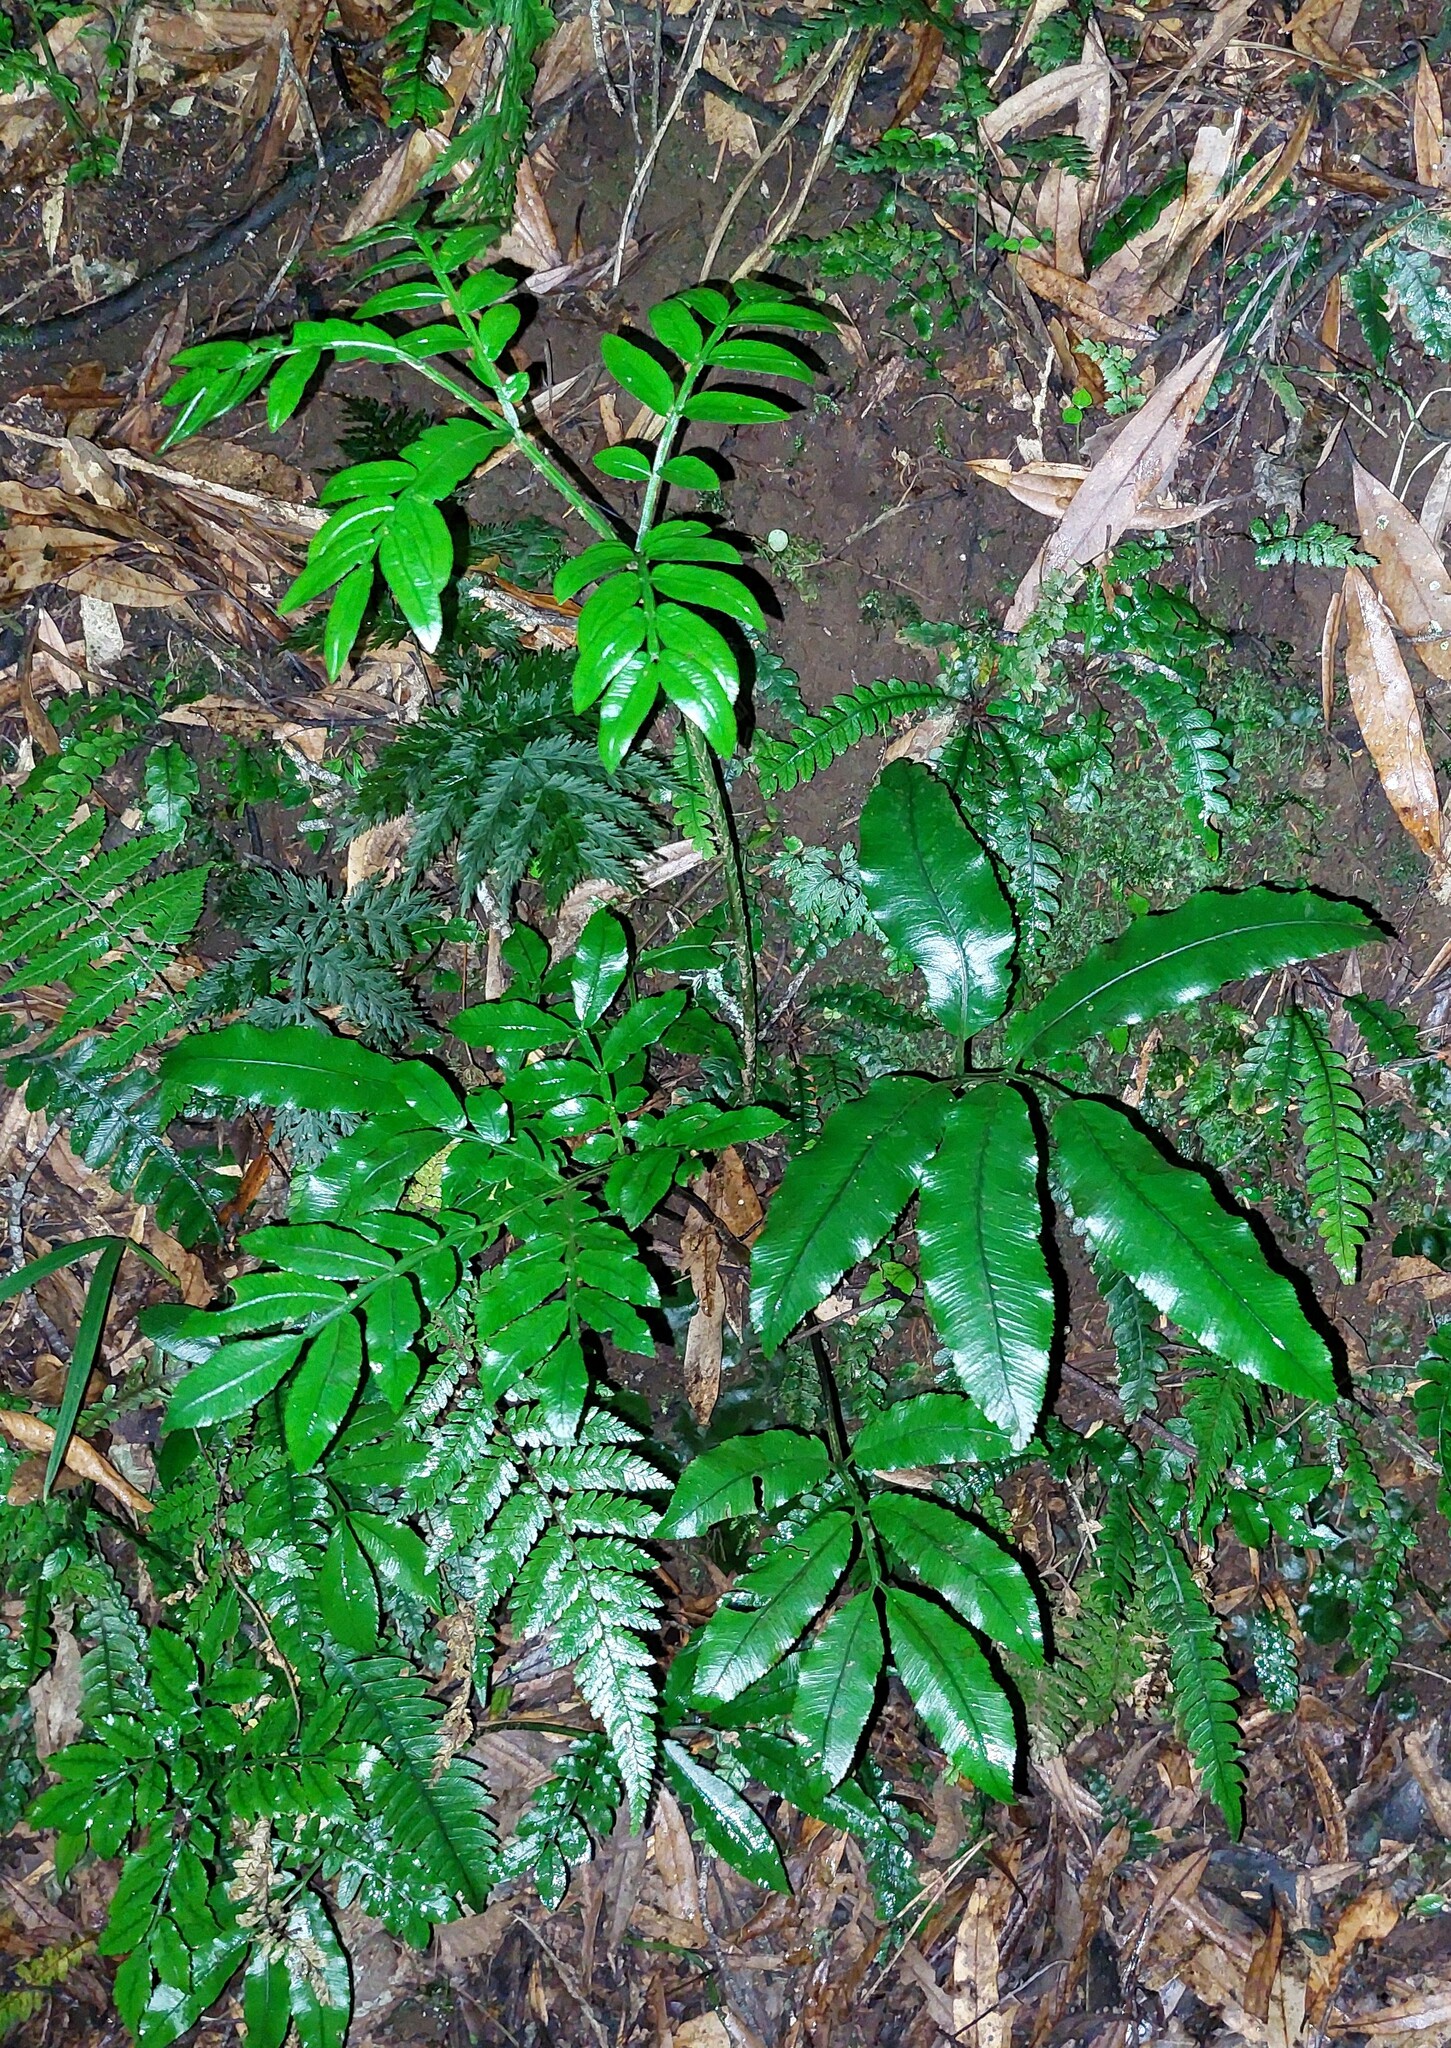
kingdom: Plantae
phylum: Tracheophyta
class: Polypodiopsida
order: Marattiales
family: Marattiaceae
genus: Ptisana
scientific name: Ptisana salicina
